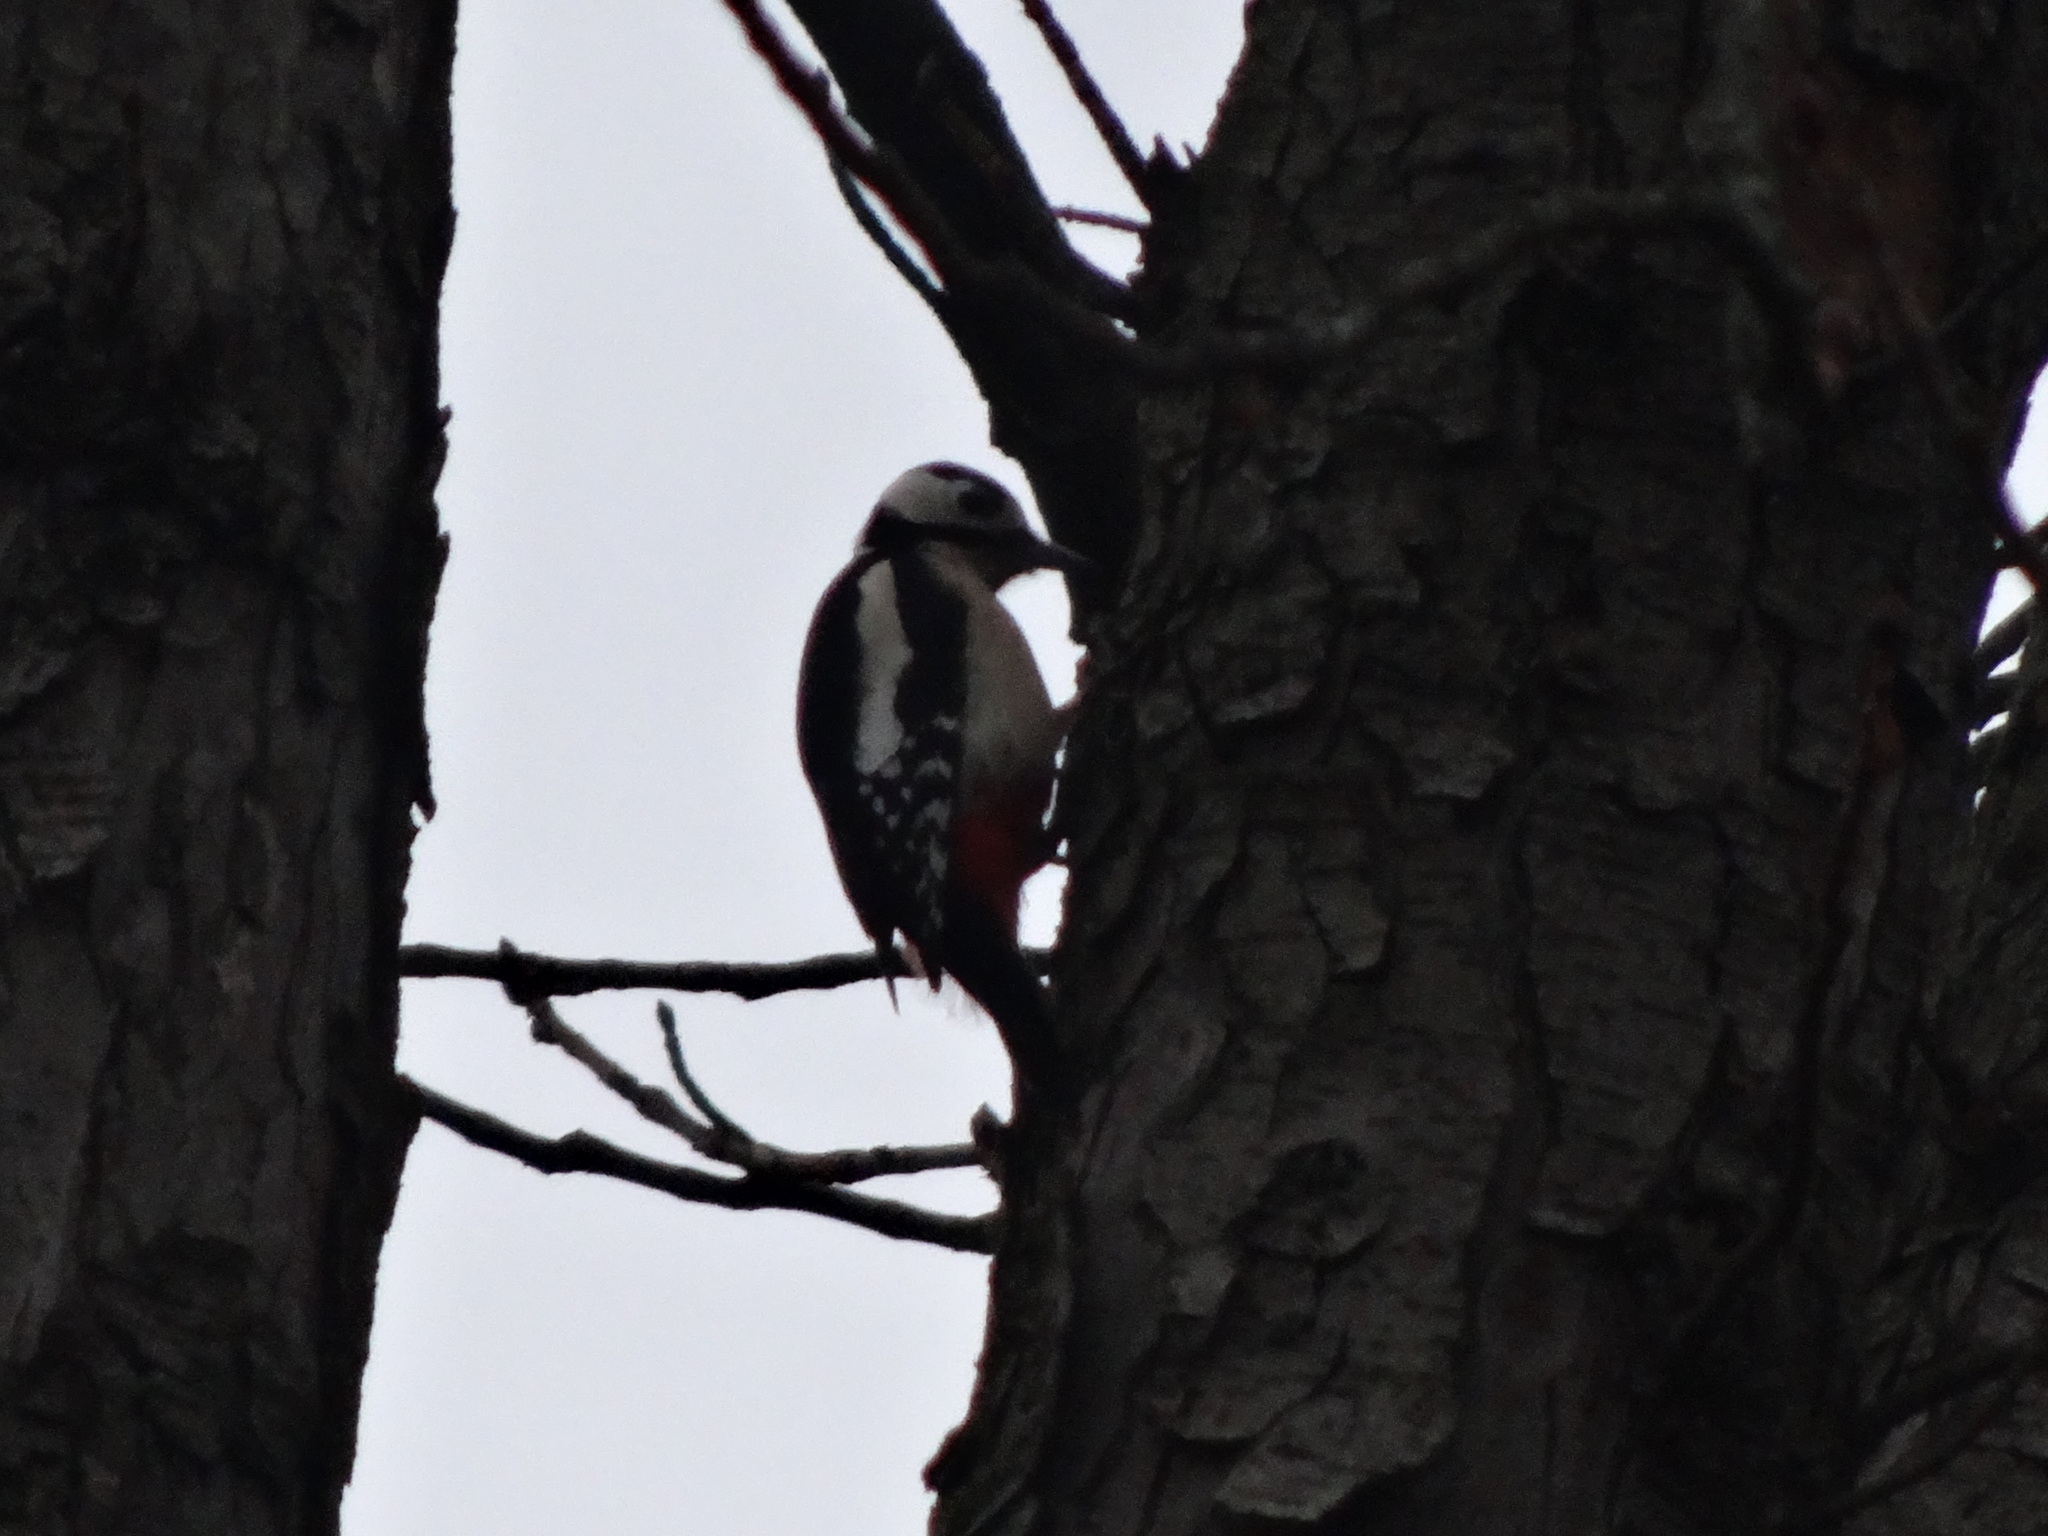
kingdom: Animalia
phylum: Chordata
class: Aves
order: Piciformes
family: Picidae
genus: Dendrocopos
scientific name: Dendrocopos major
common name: Great spotted woodpecker
